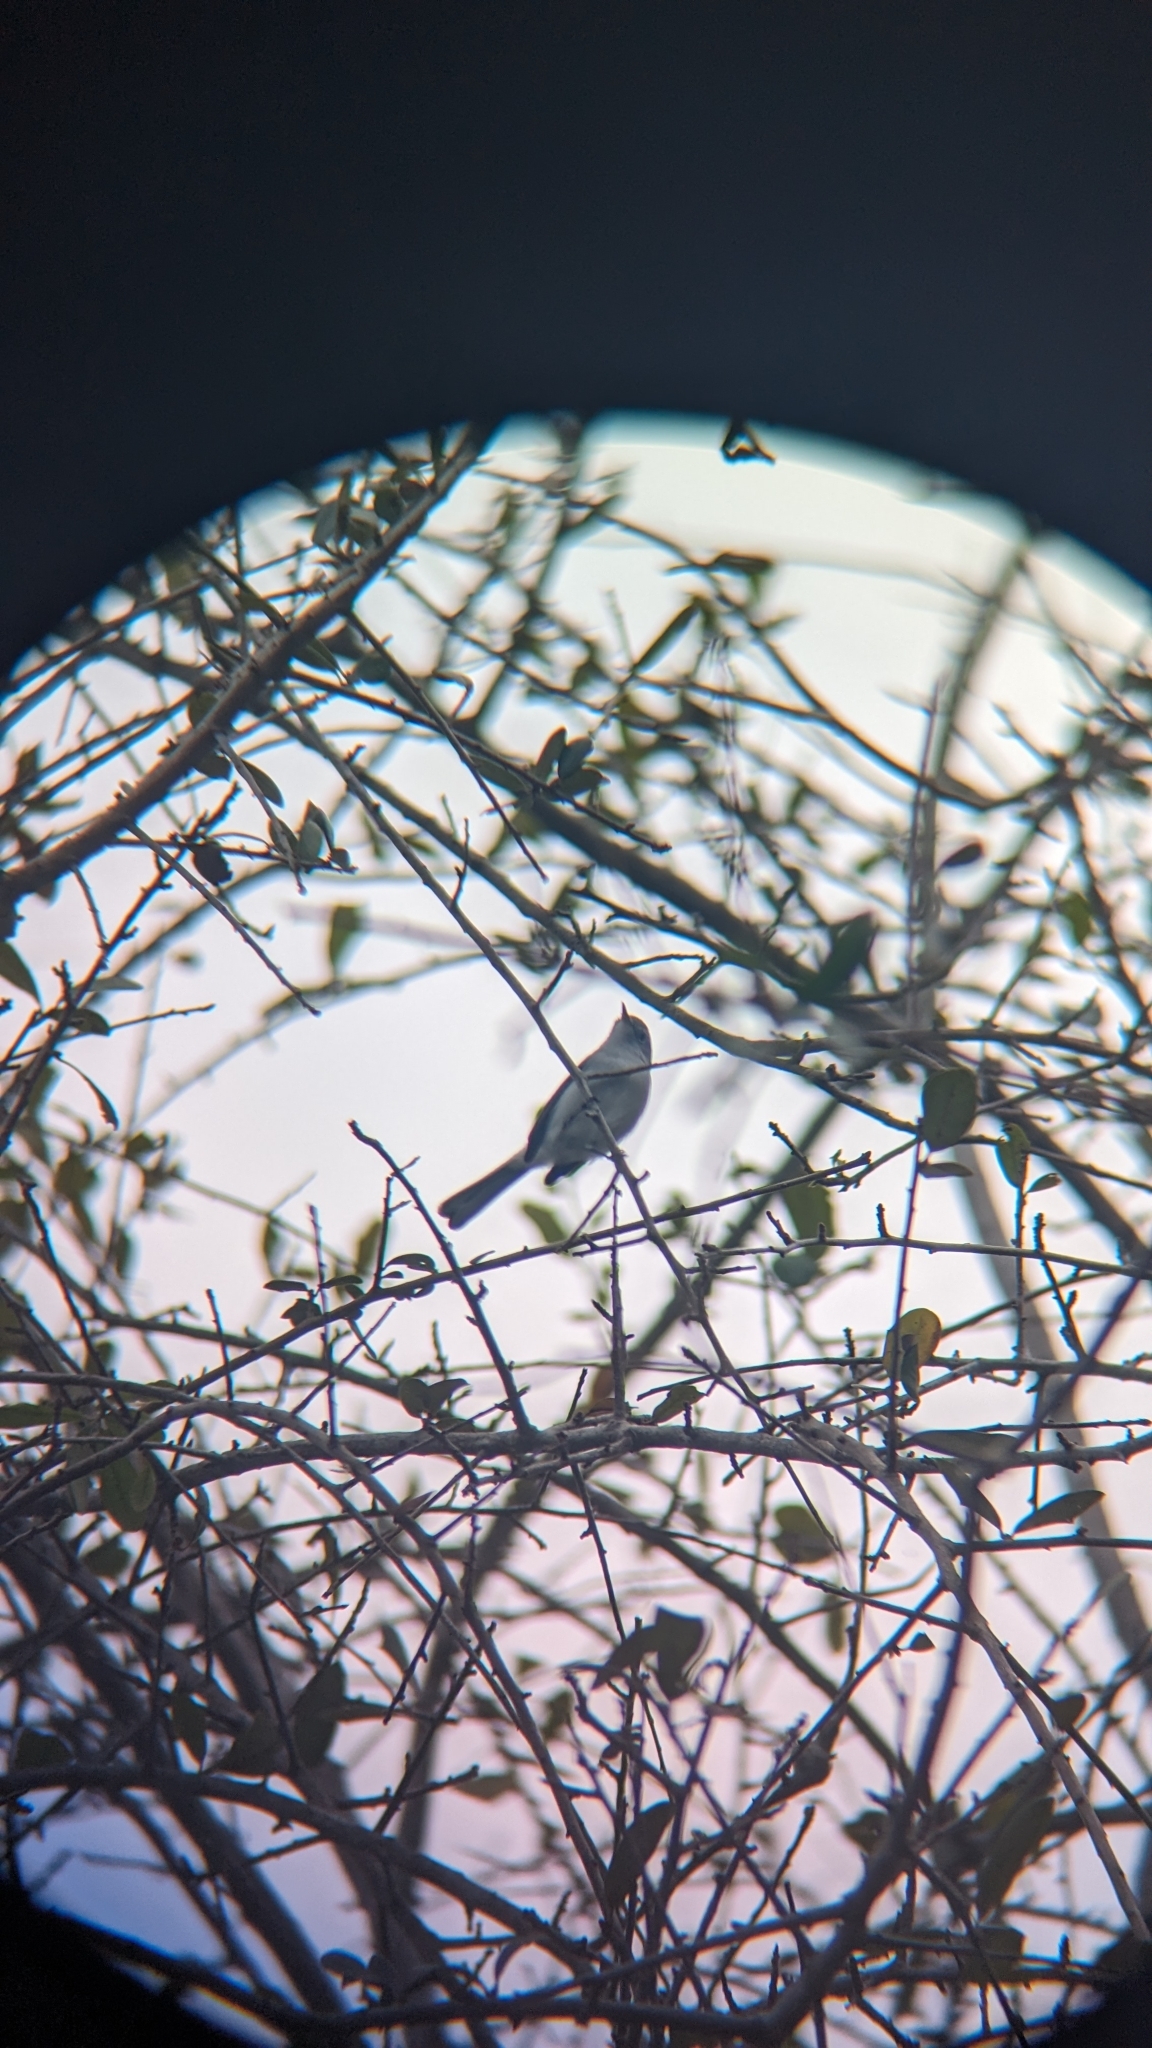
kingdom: Animalia
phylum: Chordata
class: Aves
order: Passeriformes
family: Polioptilidae
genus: Polioptila
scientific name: Polioptila caerulea
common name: Blue-gray gnatcatcher
